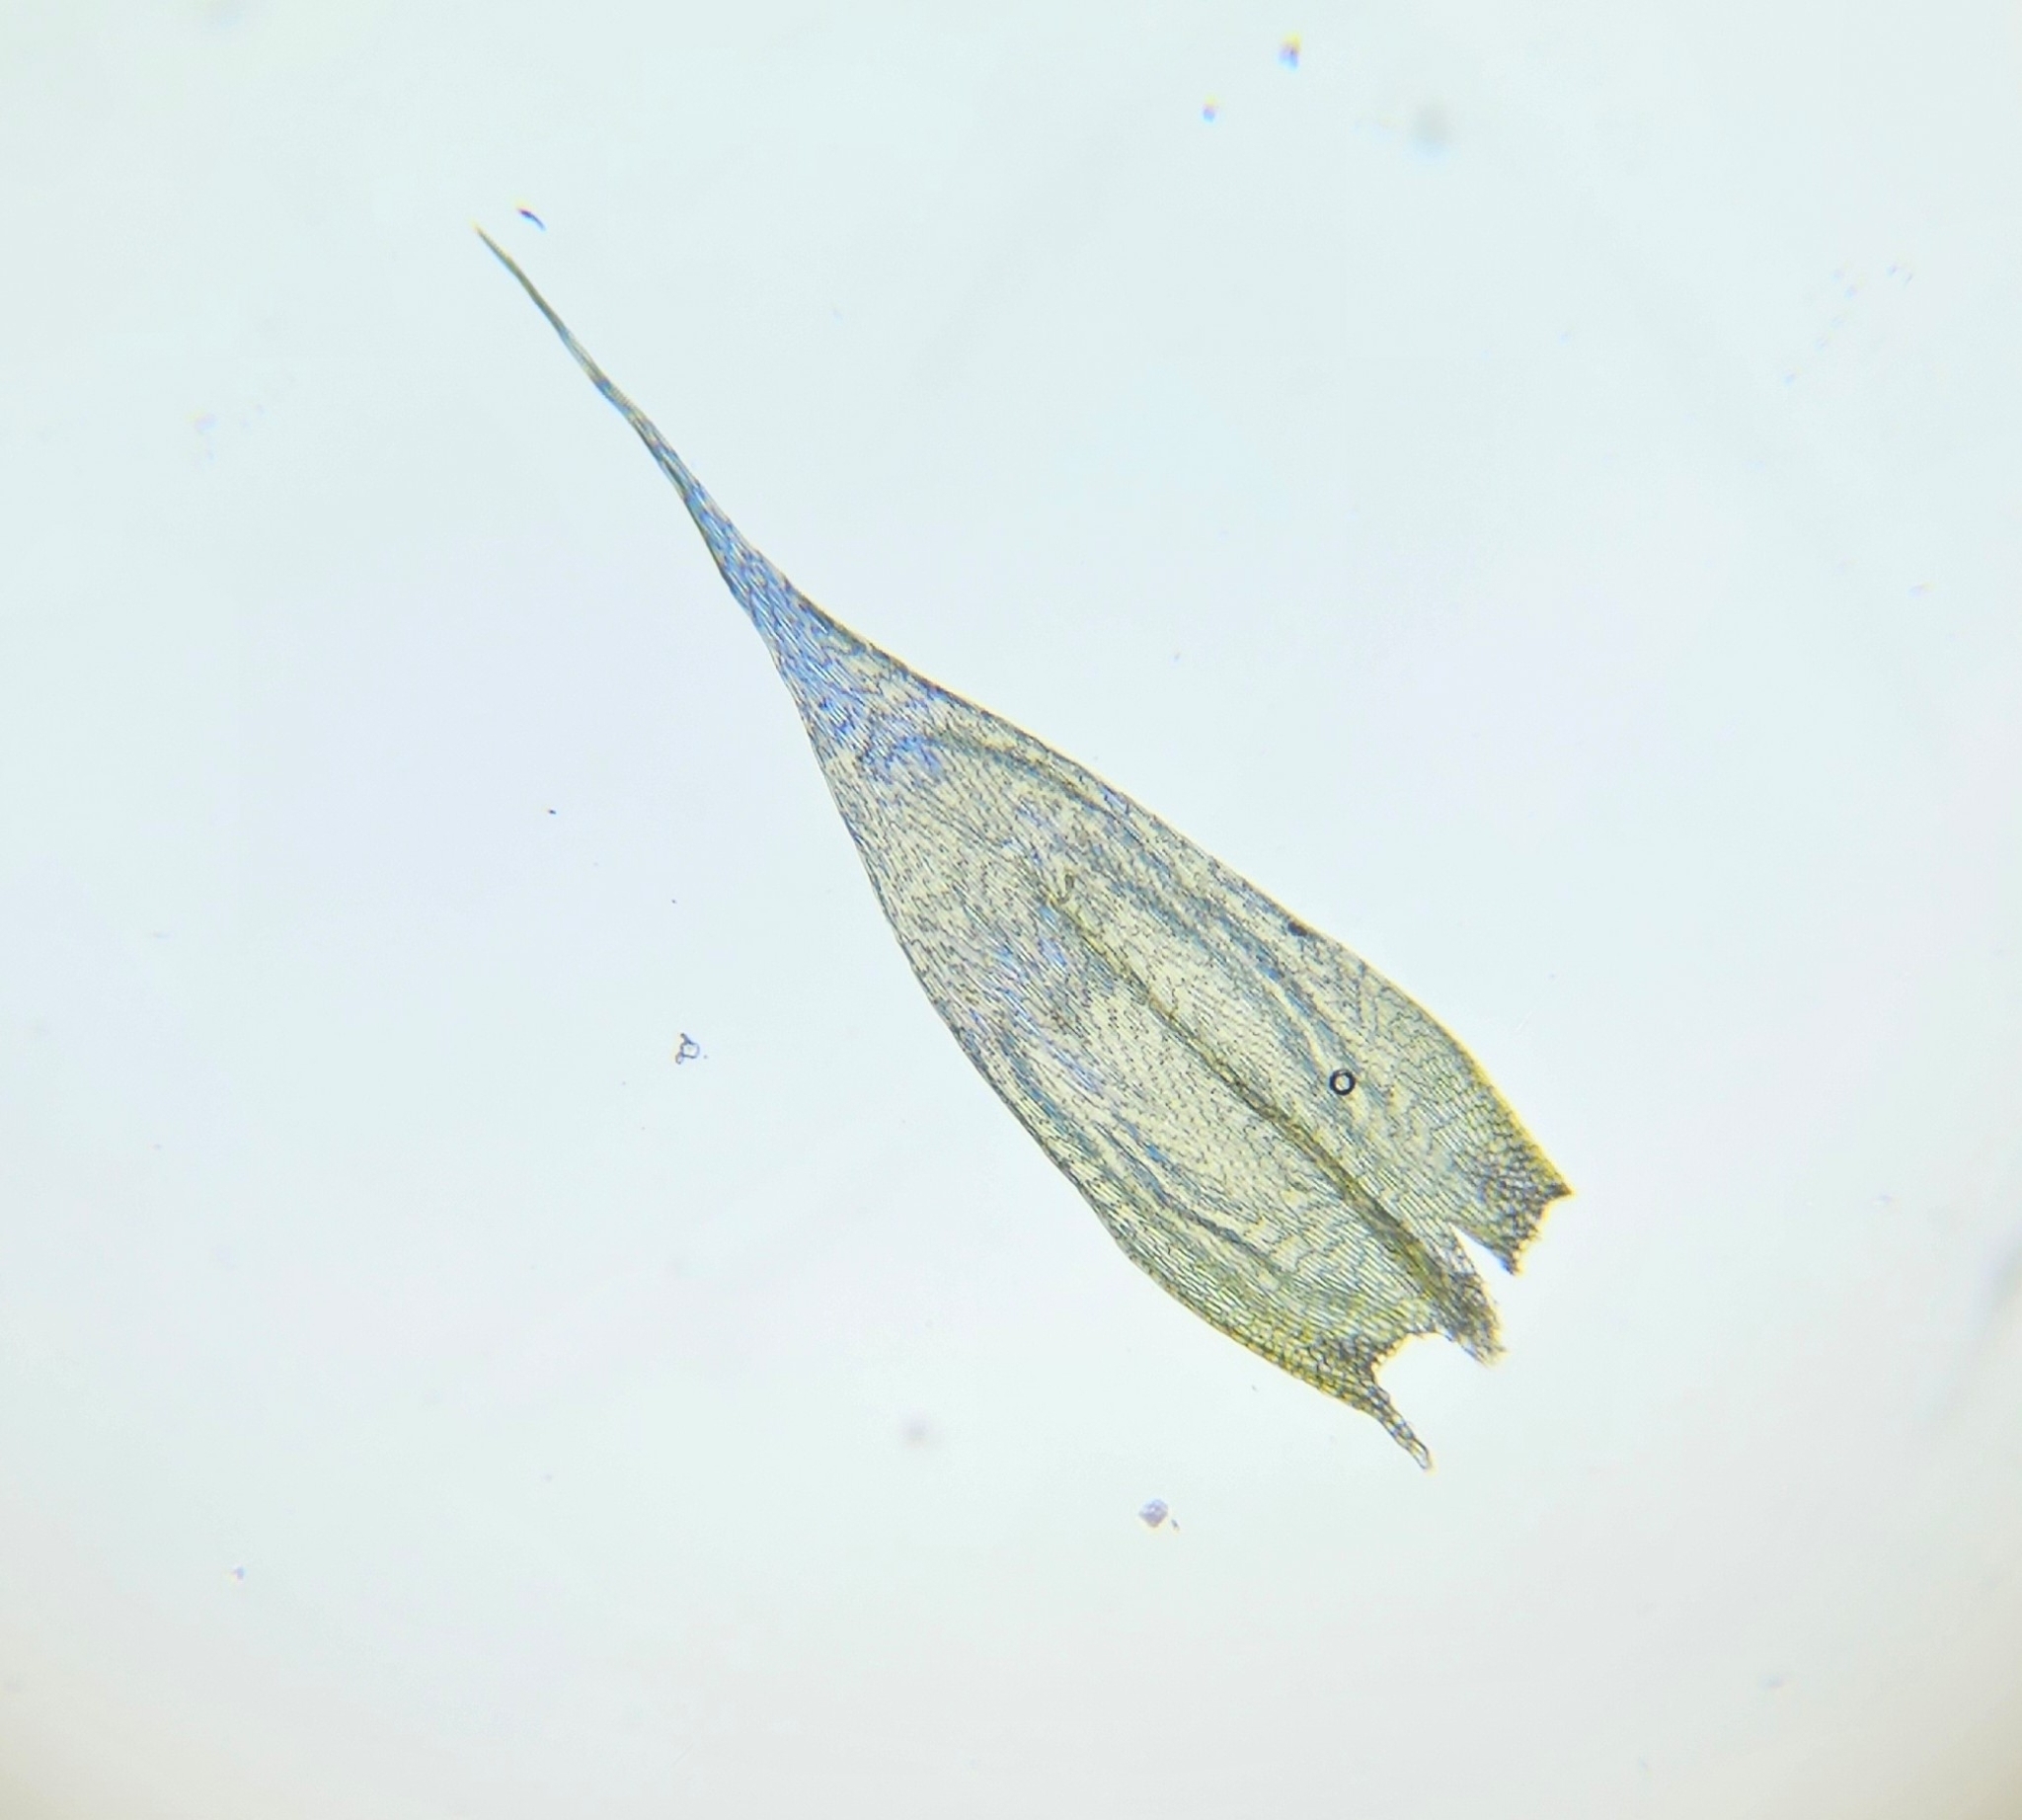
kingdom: Plantae
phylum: Bryophyta
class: Bryopsida
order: Hypnales
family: Brachytheciaceae
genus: Brachythecium
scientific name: Brachythecium albicans
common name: Whitish ragged moss
